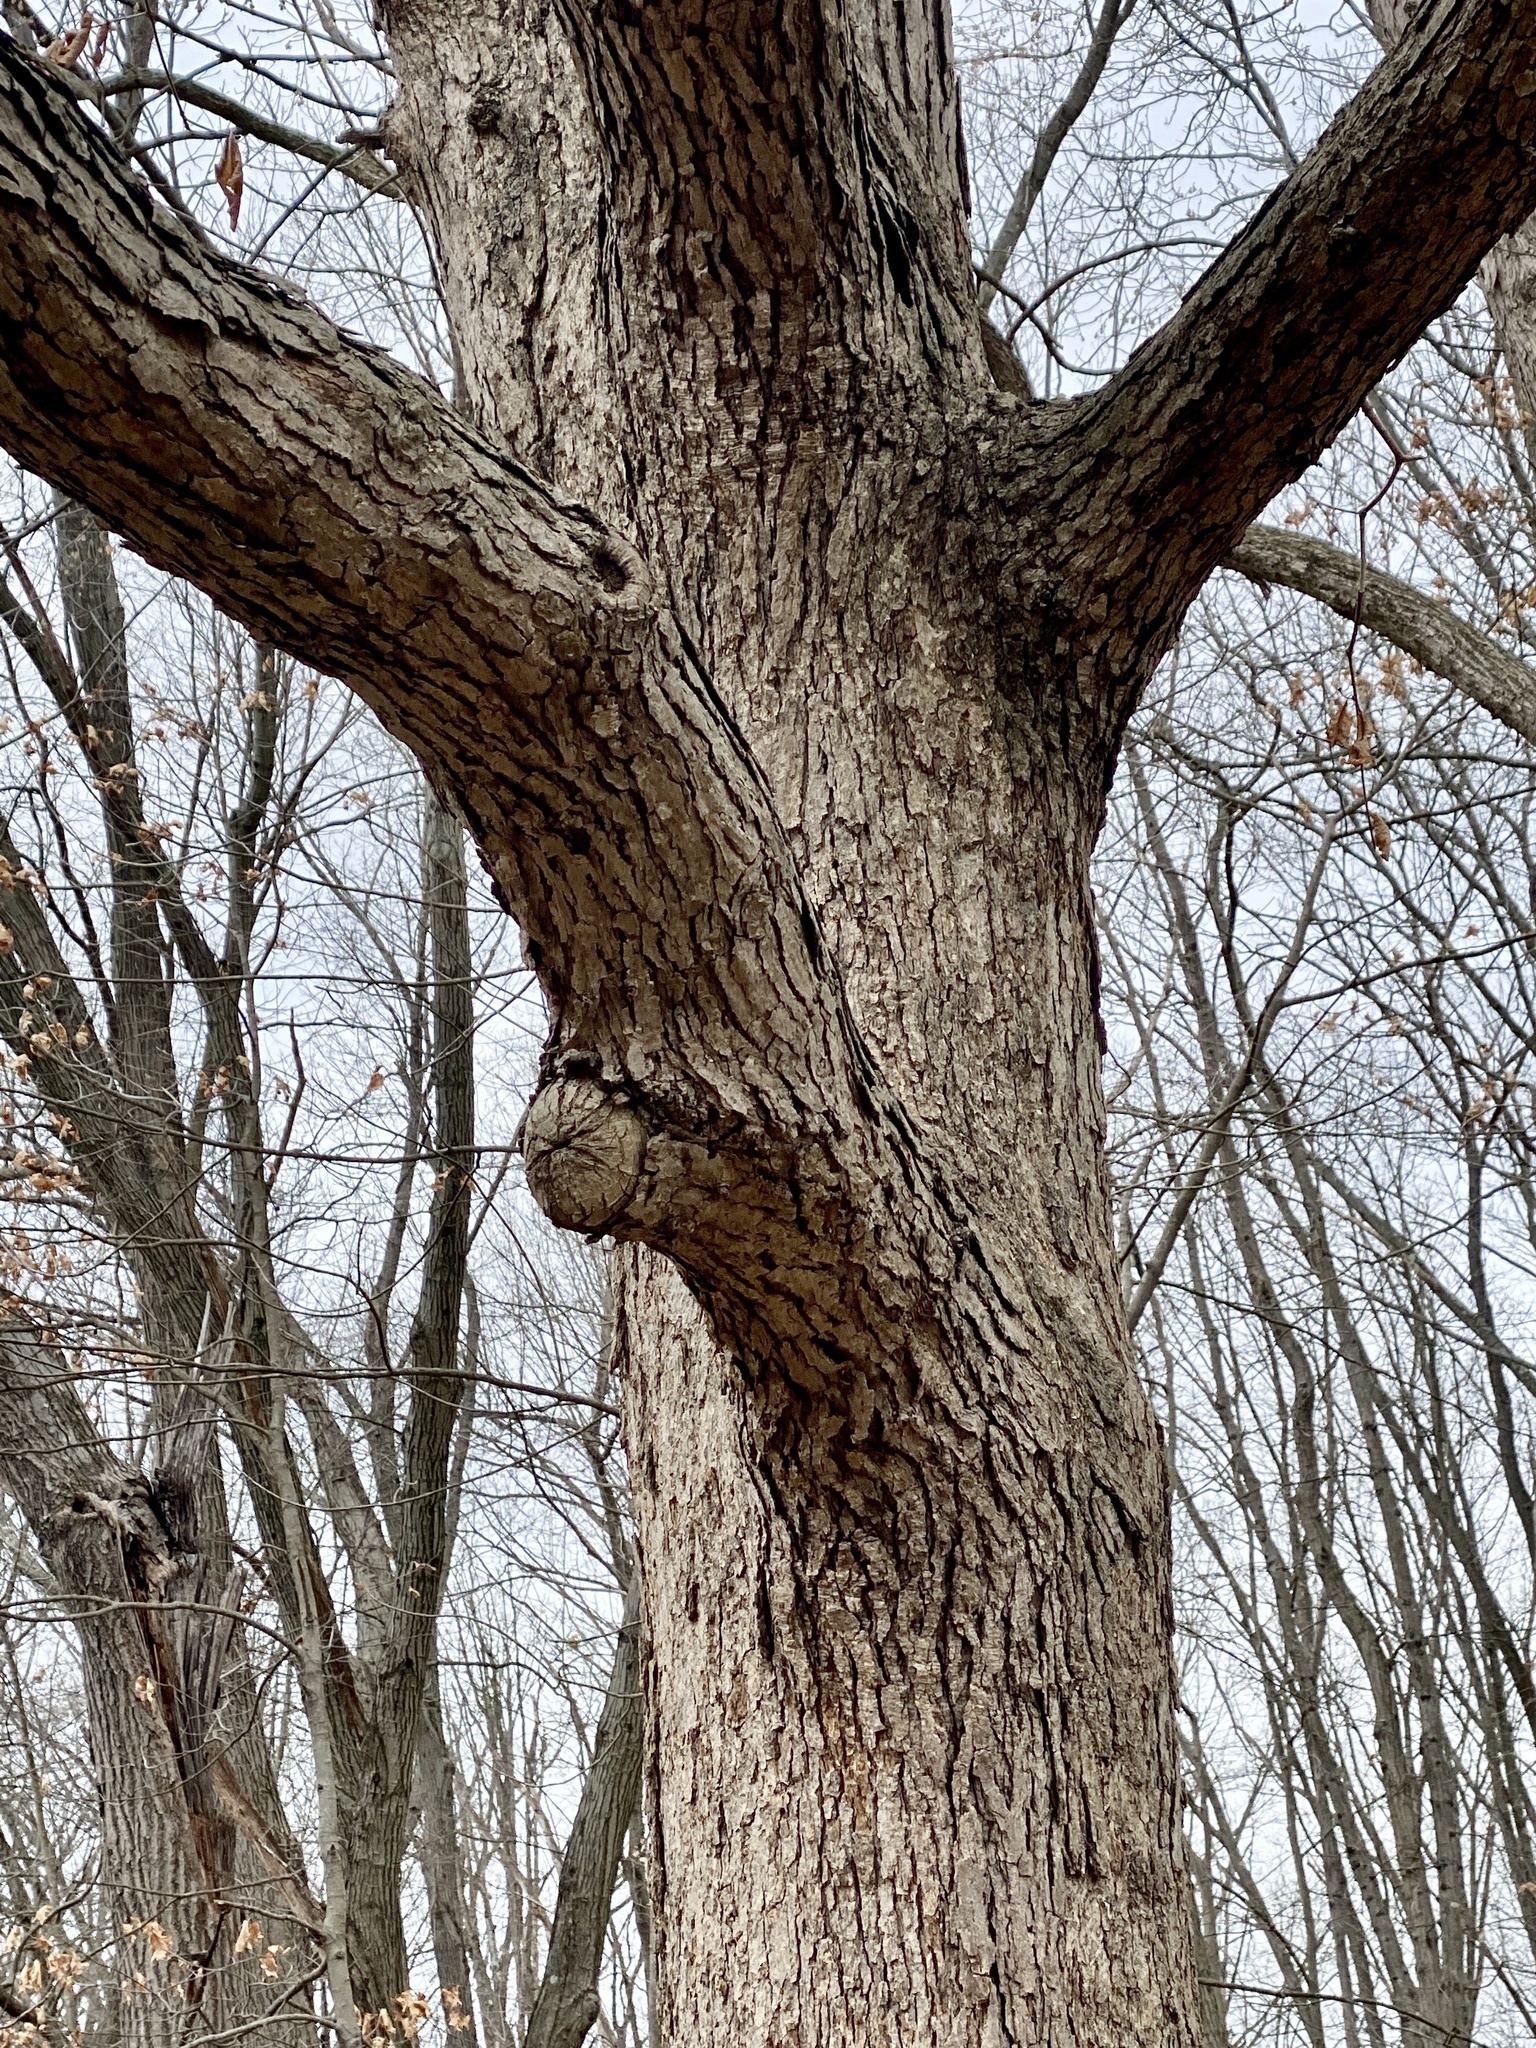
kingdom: Plantae
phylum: Tracheophyta
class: Magnoliopsida
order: Fagales
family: Fagaceae
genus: Quercus
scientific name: Quercus alba
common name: White oak
